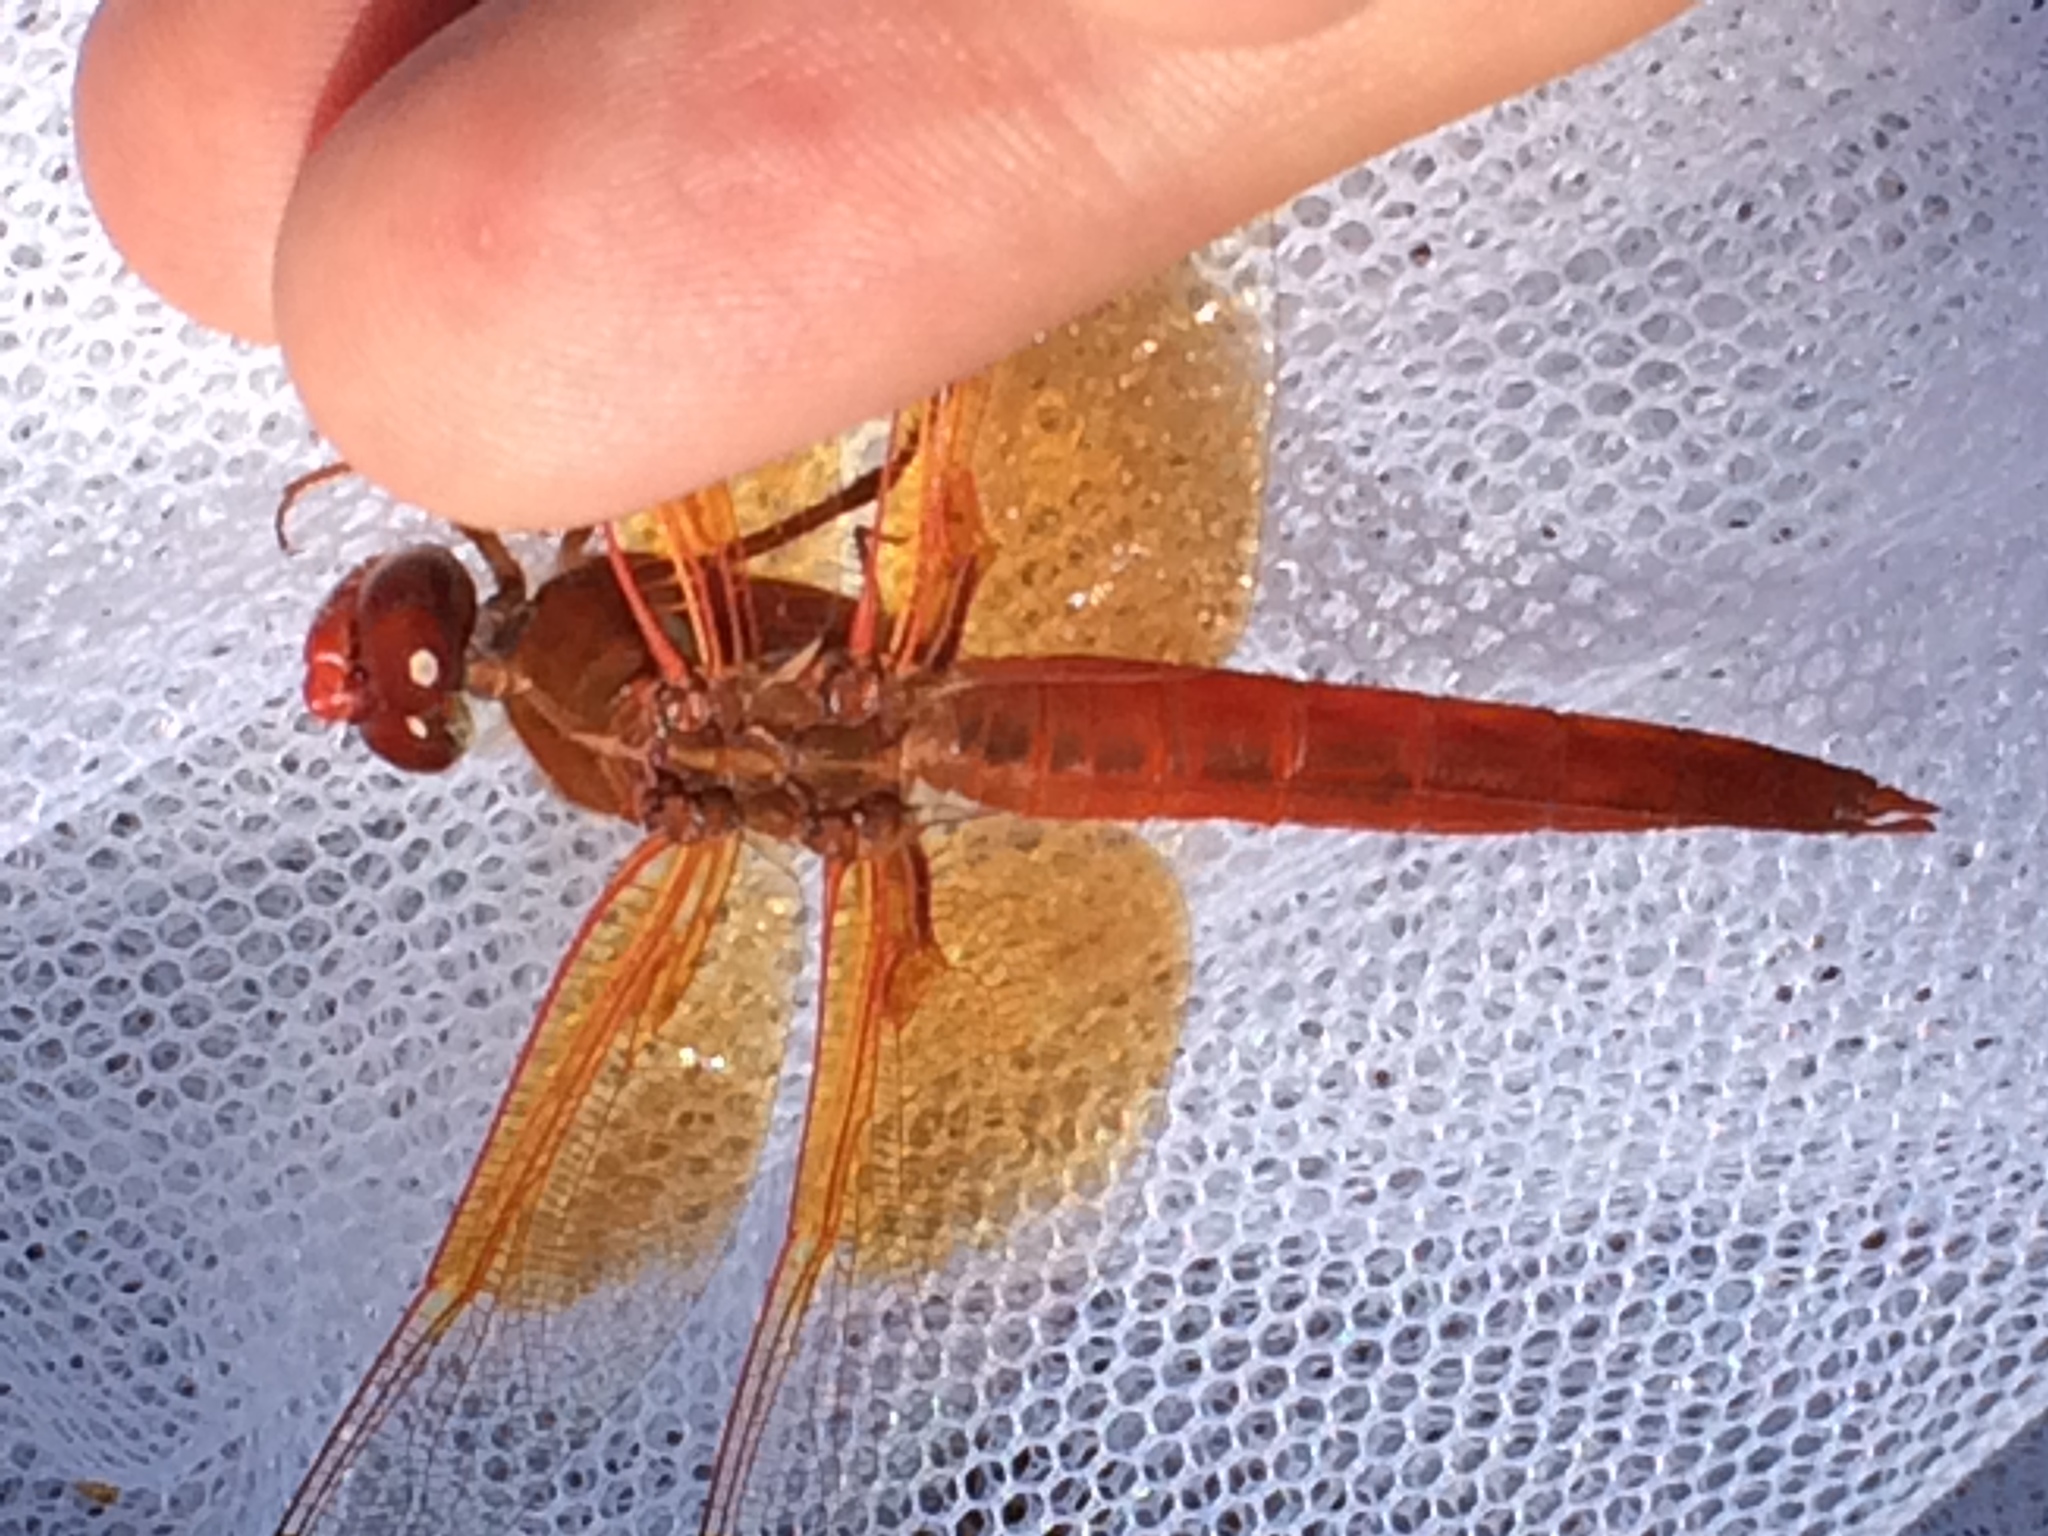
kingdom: Animalia
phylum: Arthropoda
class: Insecta
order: Odonata
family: Libellulidae
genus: Libellula
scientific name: Libellula saturata
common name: Flame skimmer
